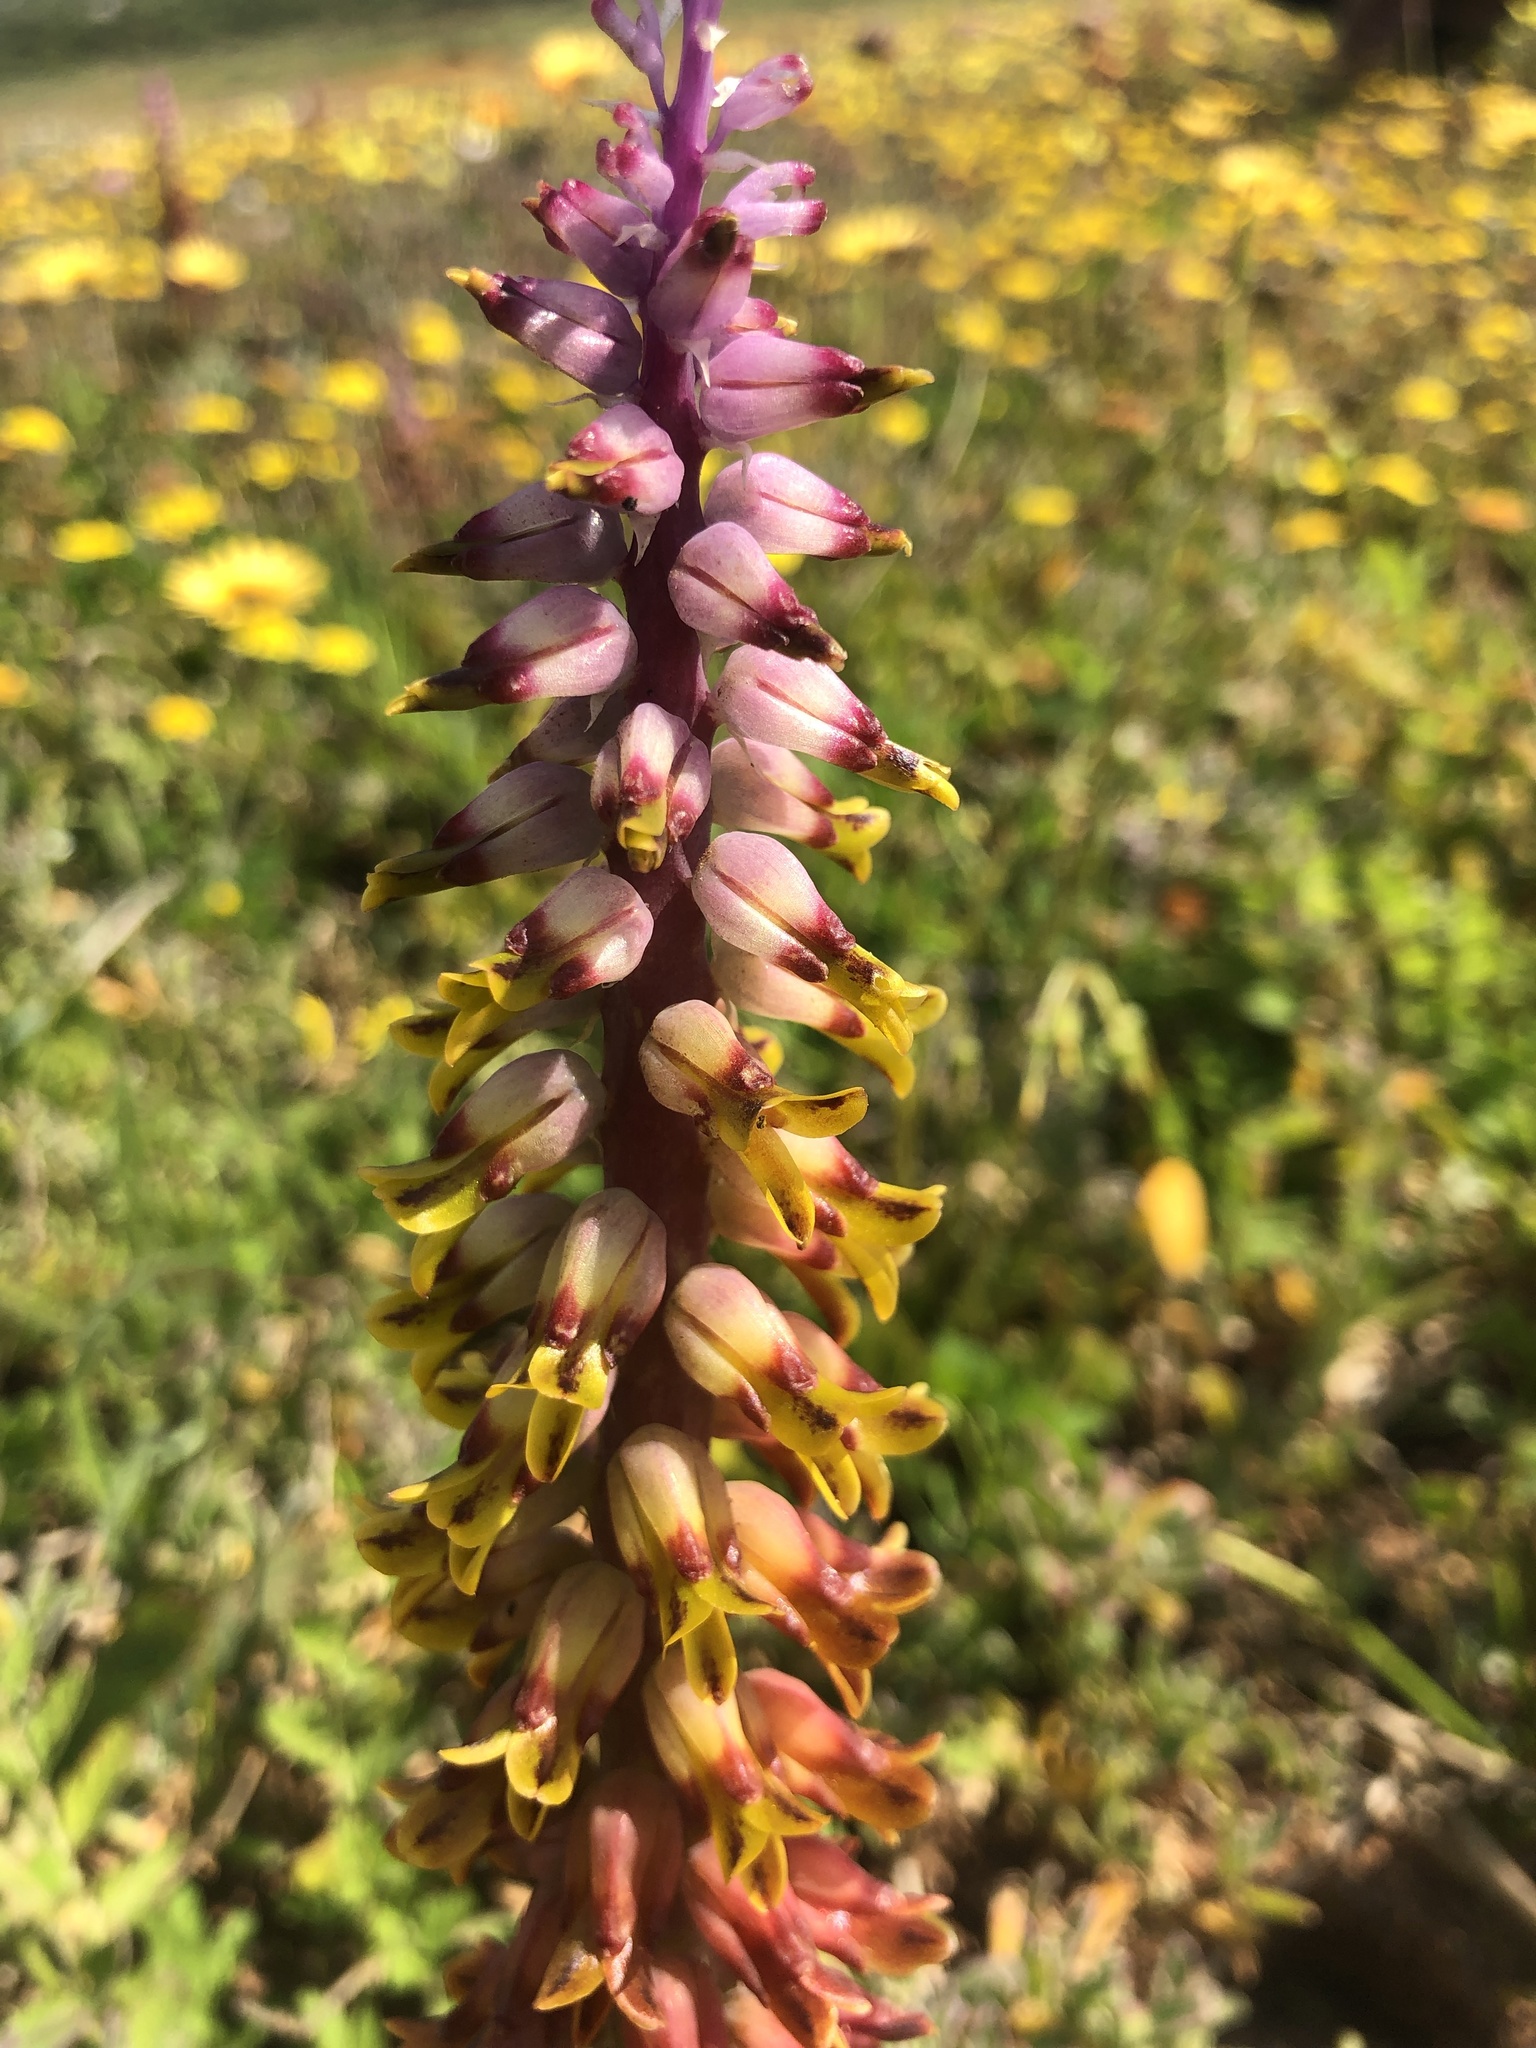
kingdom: Plantae
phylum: Tracheophyta
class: Liliopsida
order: Asparagales
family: Asparagaceae
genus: Lachenalia
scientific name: Lachenalia mutabilis
